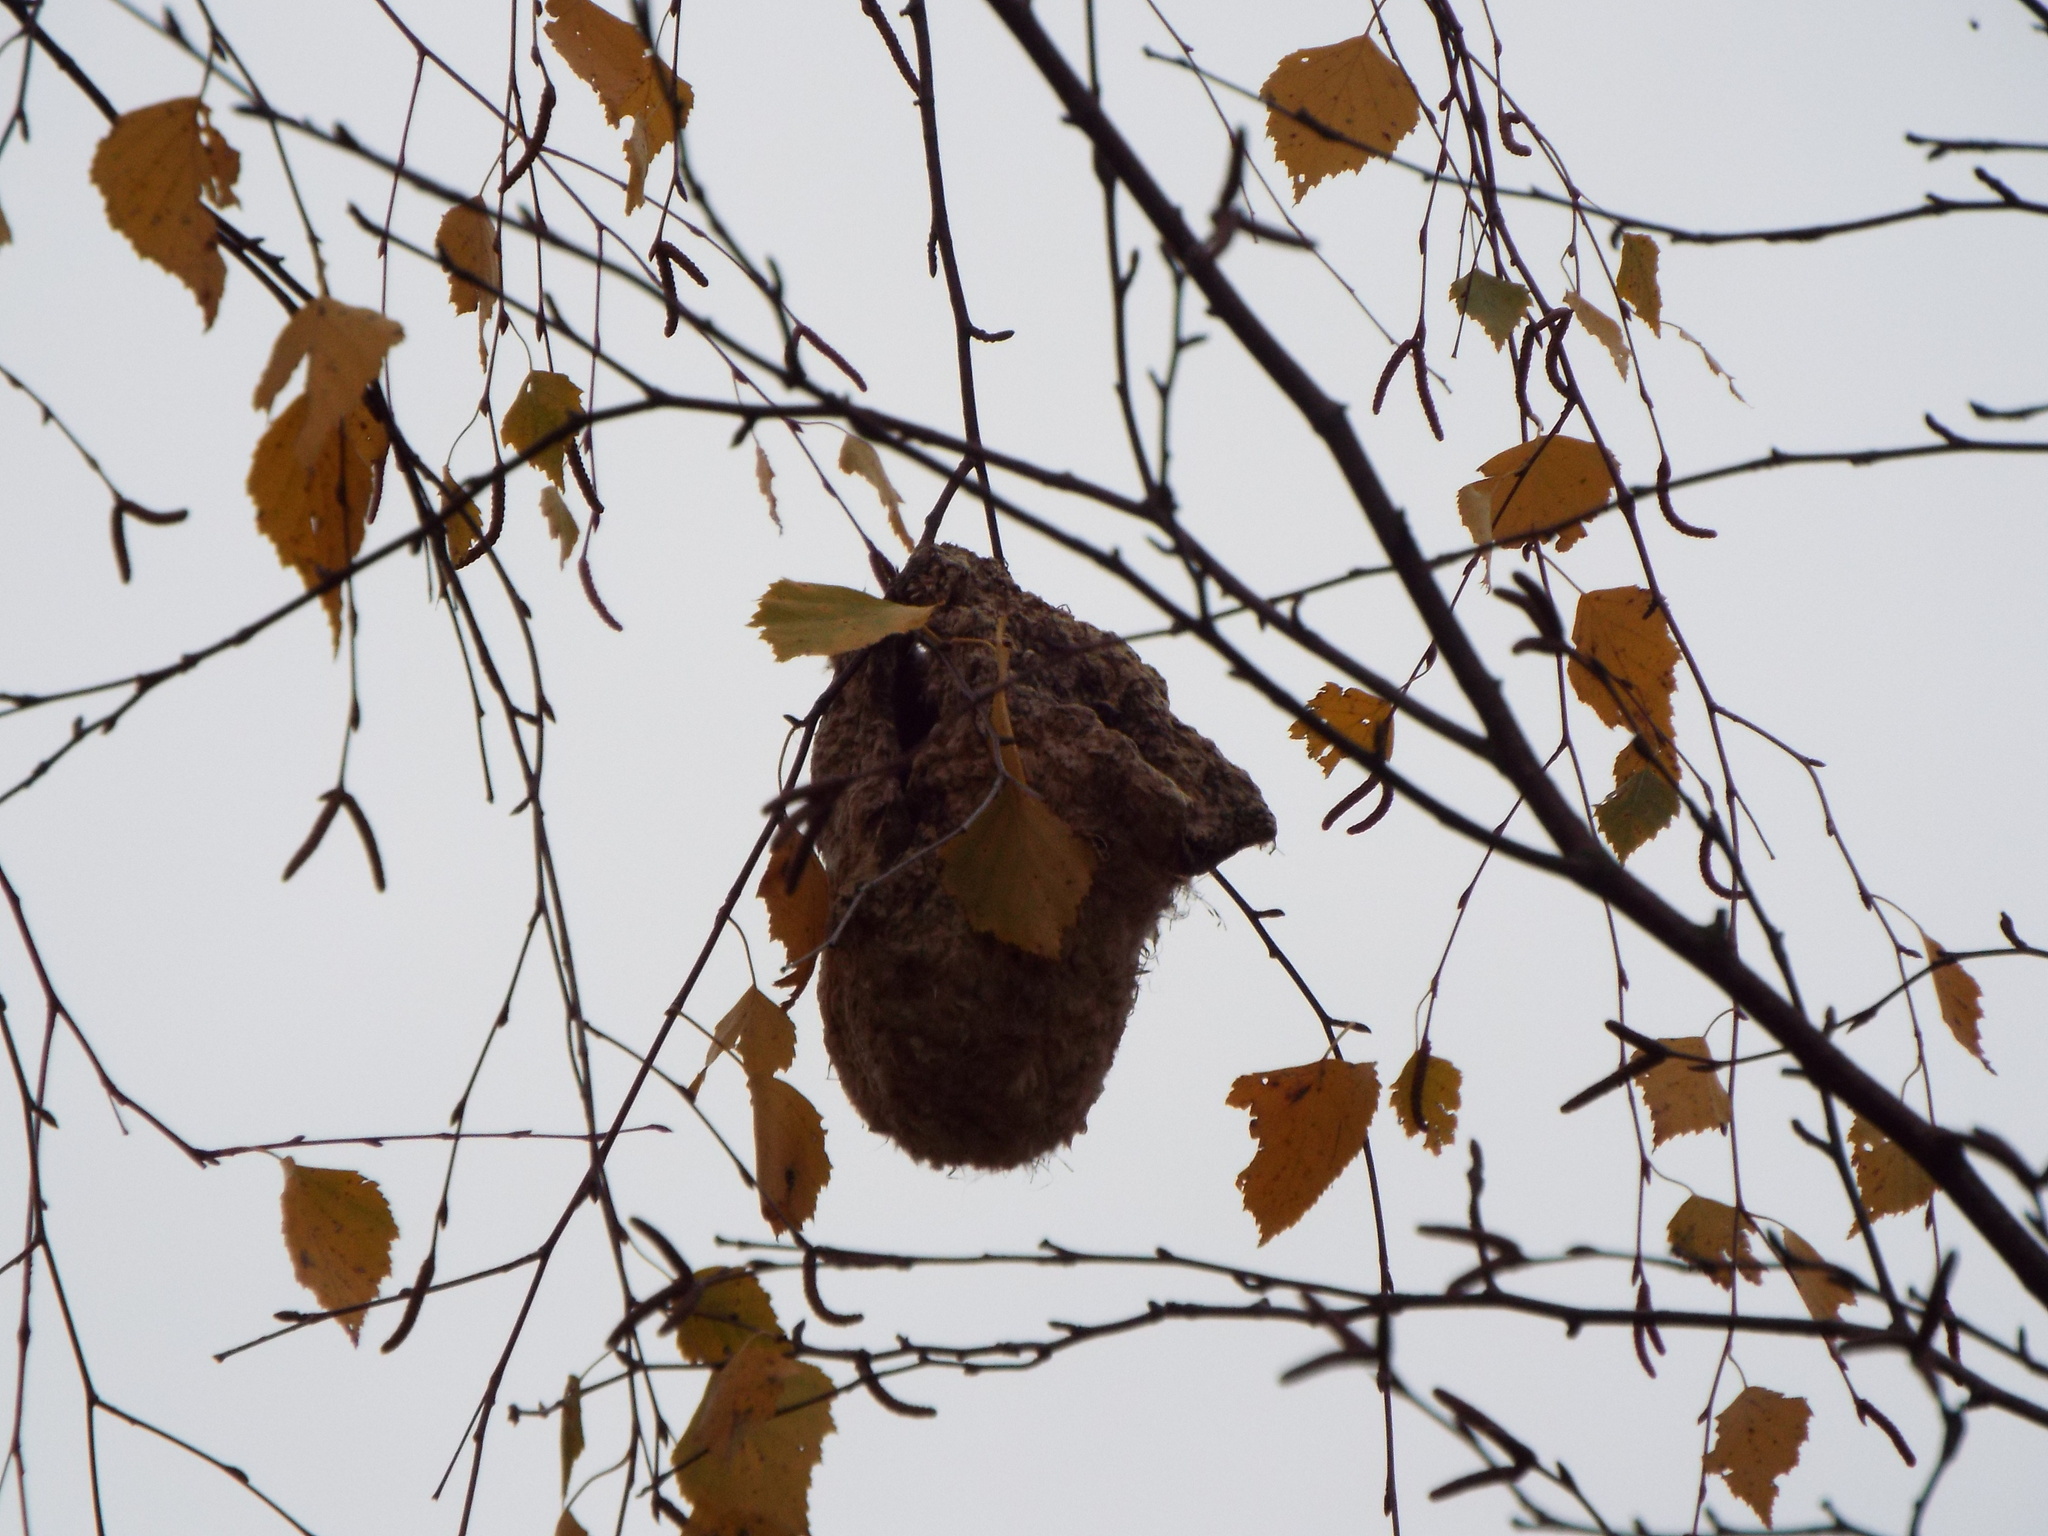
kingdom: Animalia
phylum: Chordata
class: Aves
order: Passeriformes
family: Remizidae
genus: Remiz
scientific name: Remiz pendulinus
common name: Eurasian penduline tit
